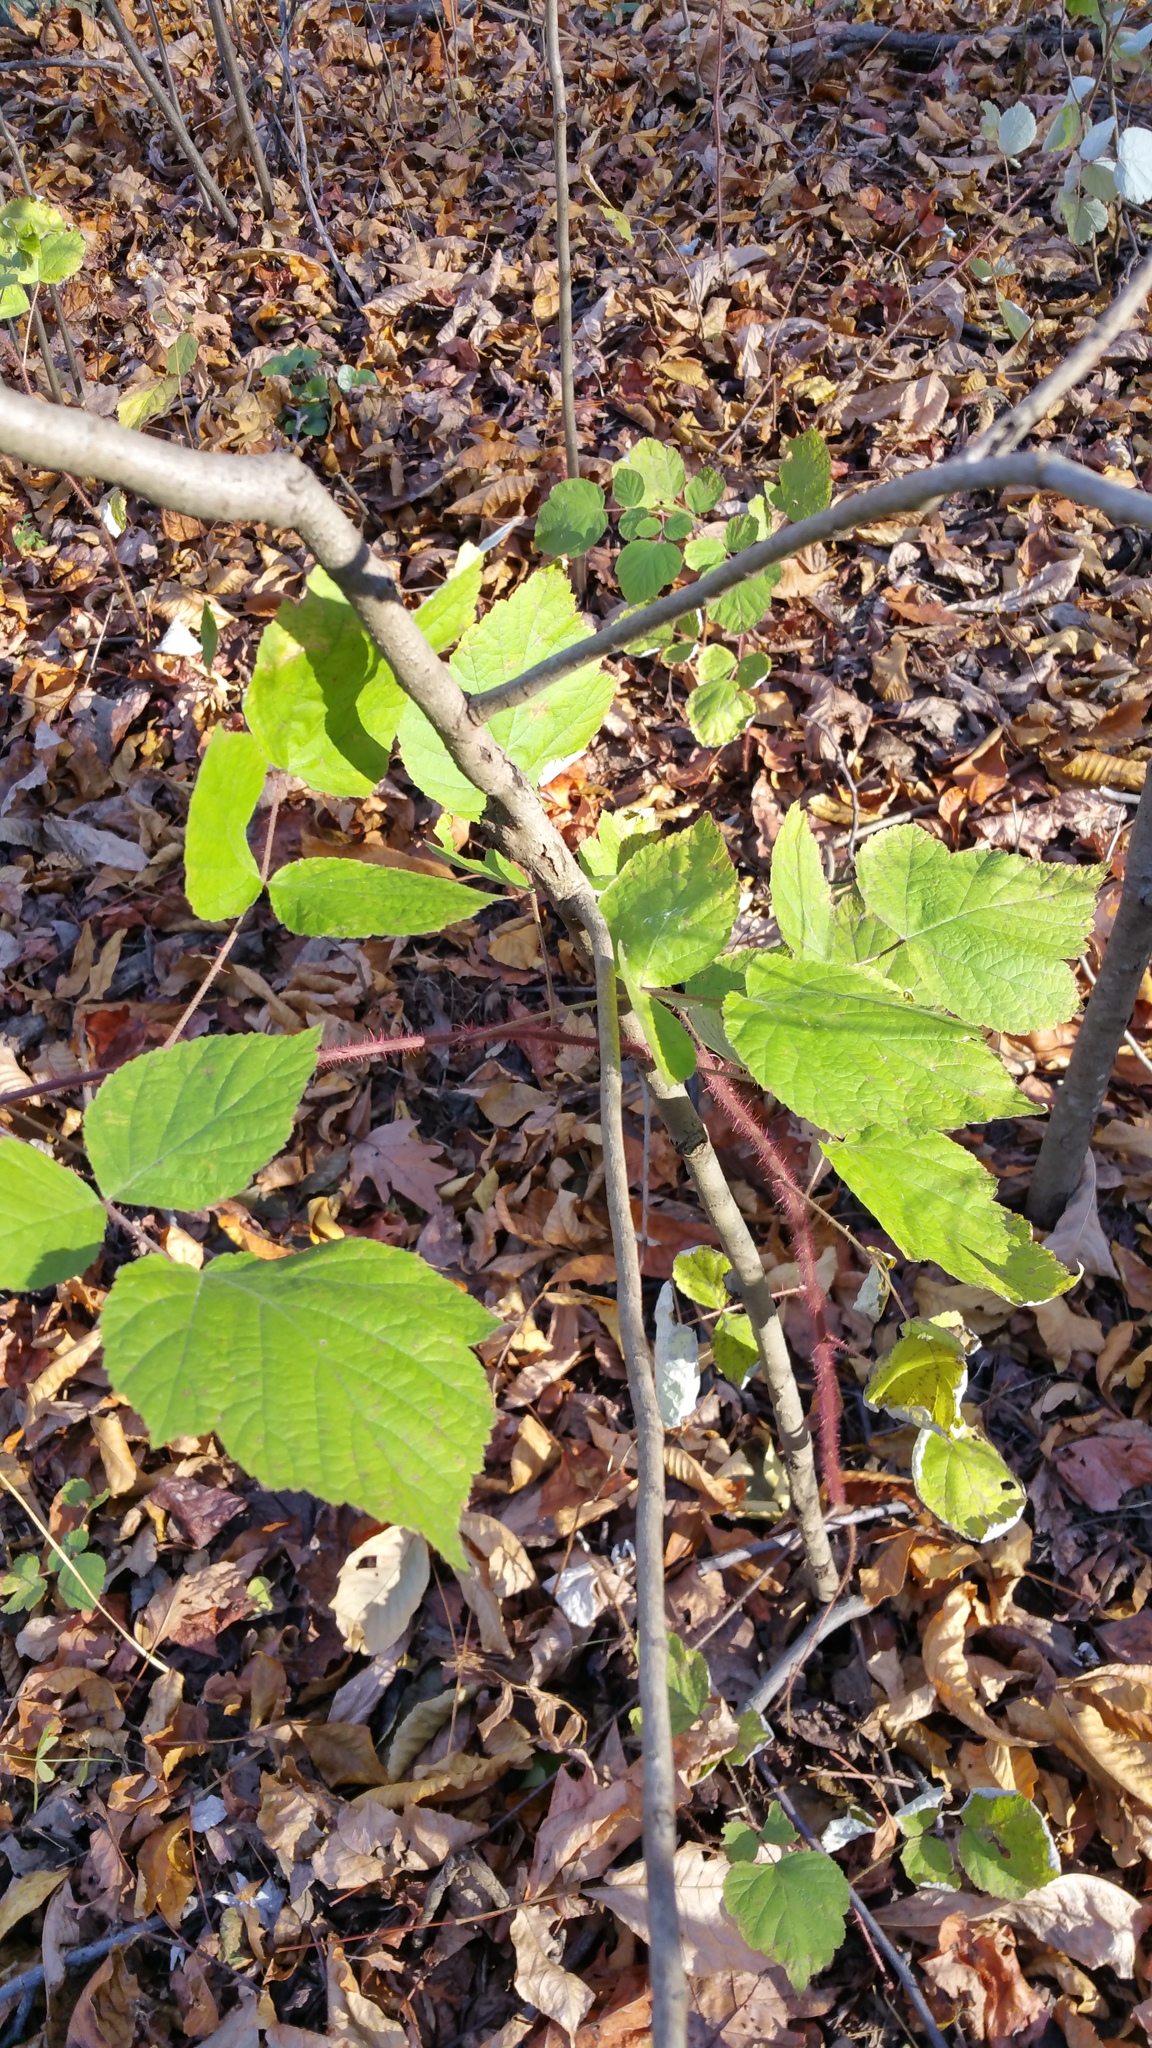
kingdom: Plantae
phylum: Tracheophyta
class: Magnoliopsida
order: Rosales
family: Rosaceae
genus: Rubus
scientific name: Rubus phoenicolasius
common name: Japanese wineberry
